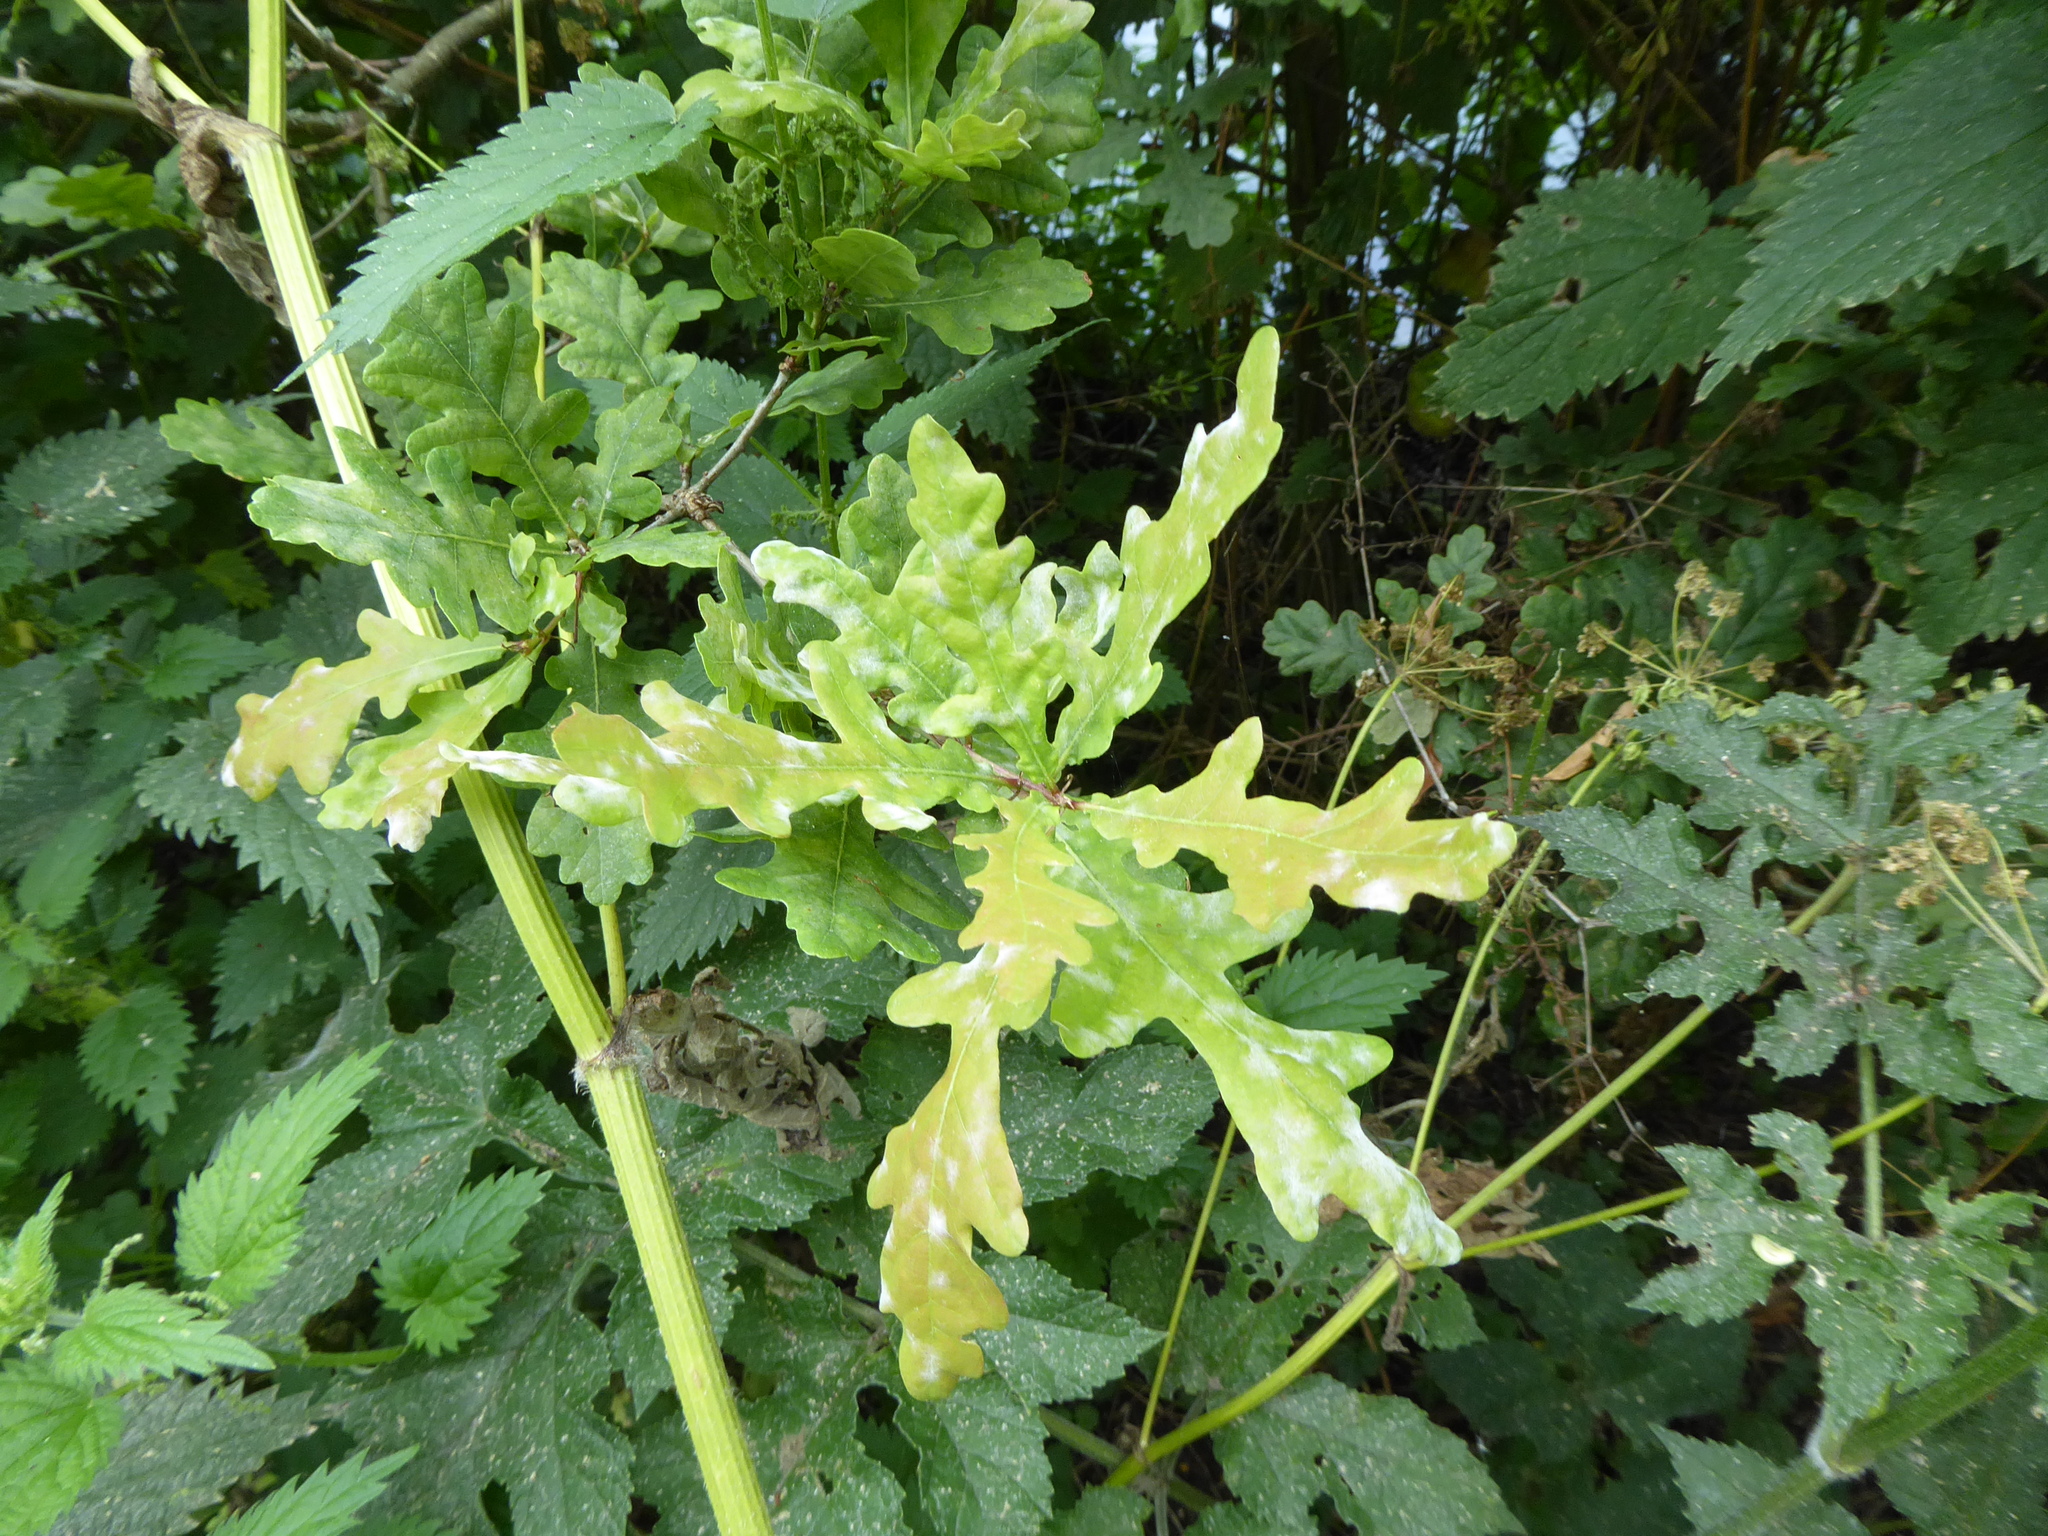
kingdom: Fungi
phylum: Ascomycota
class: Leotiomycetes
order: Helotiales
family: Erysiphaceae
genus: Erysiphe
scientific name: Erysiphe alphitoides
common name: Oak mildew
